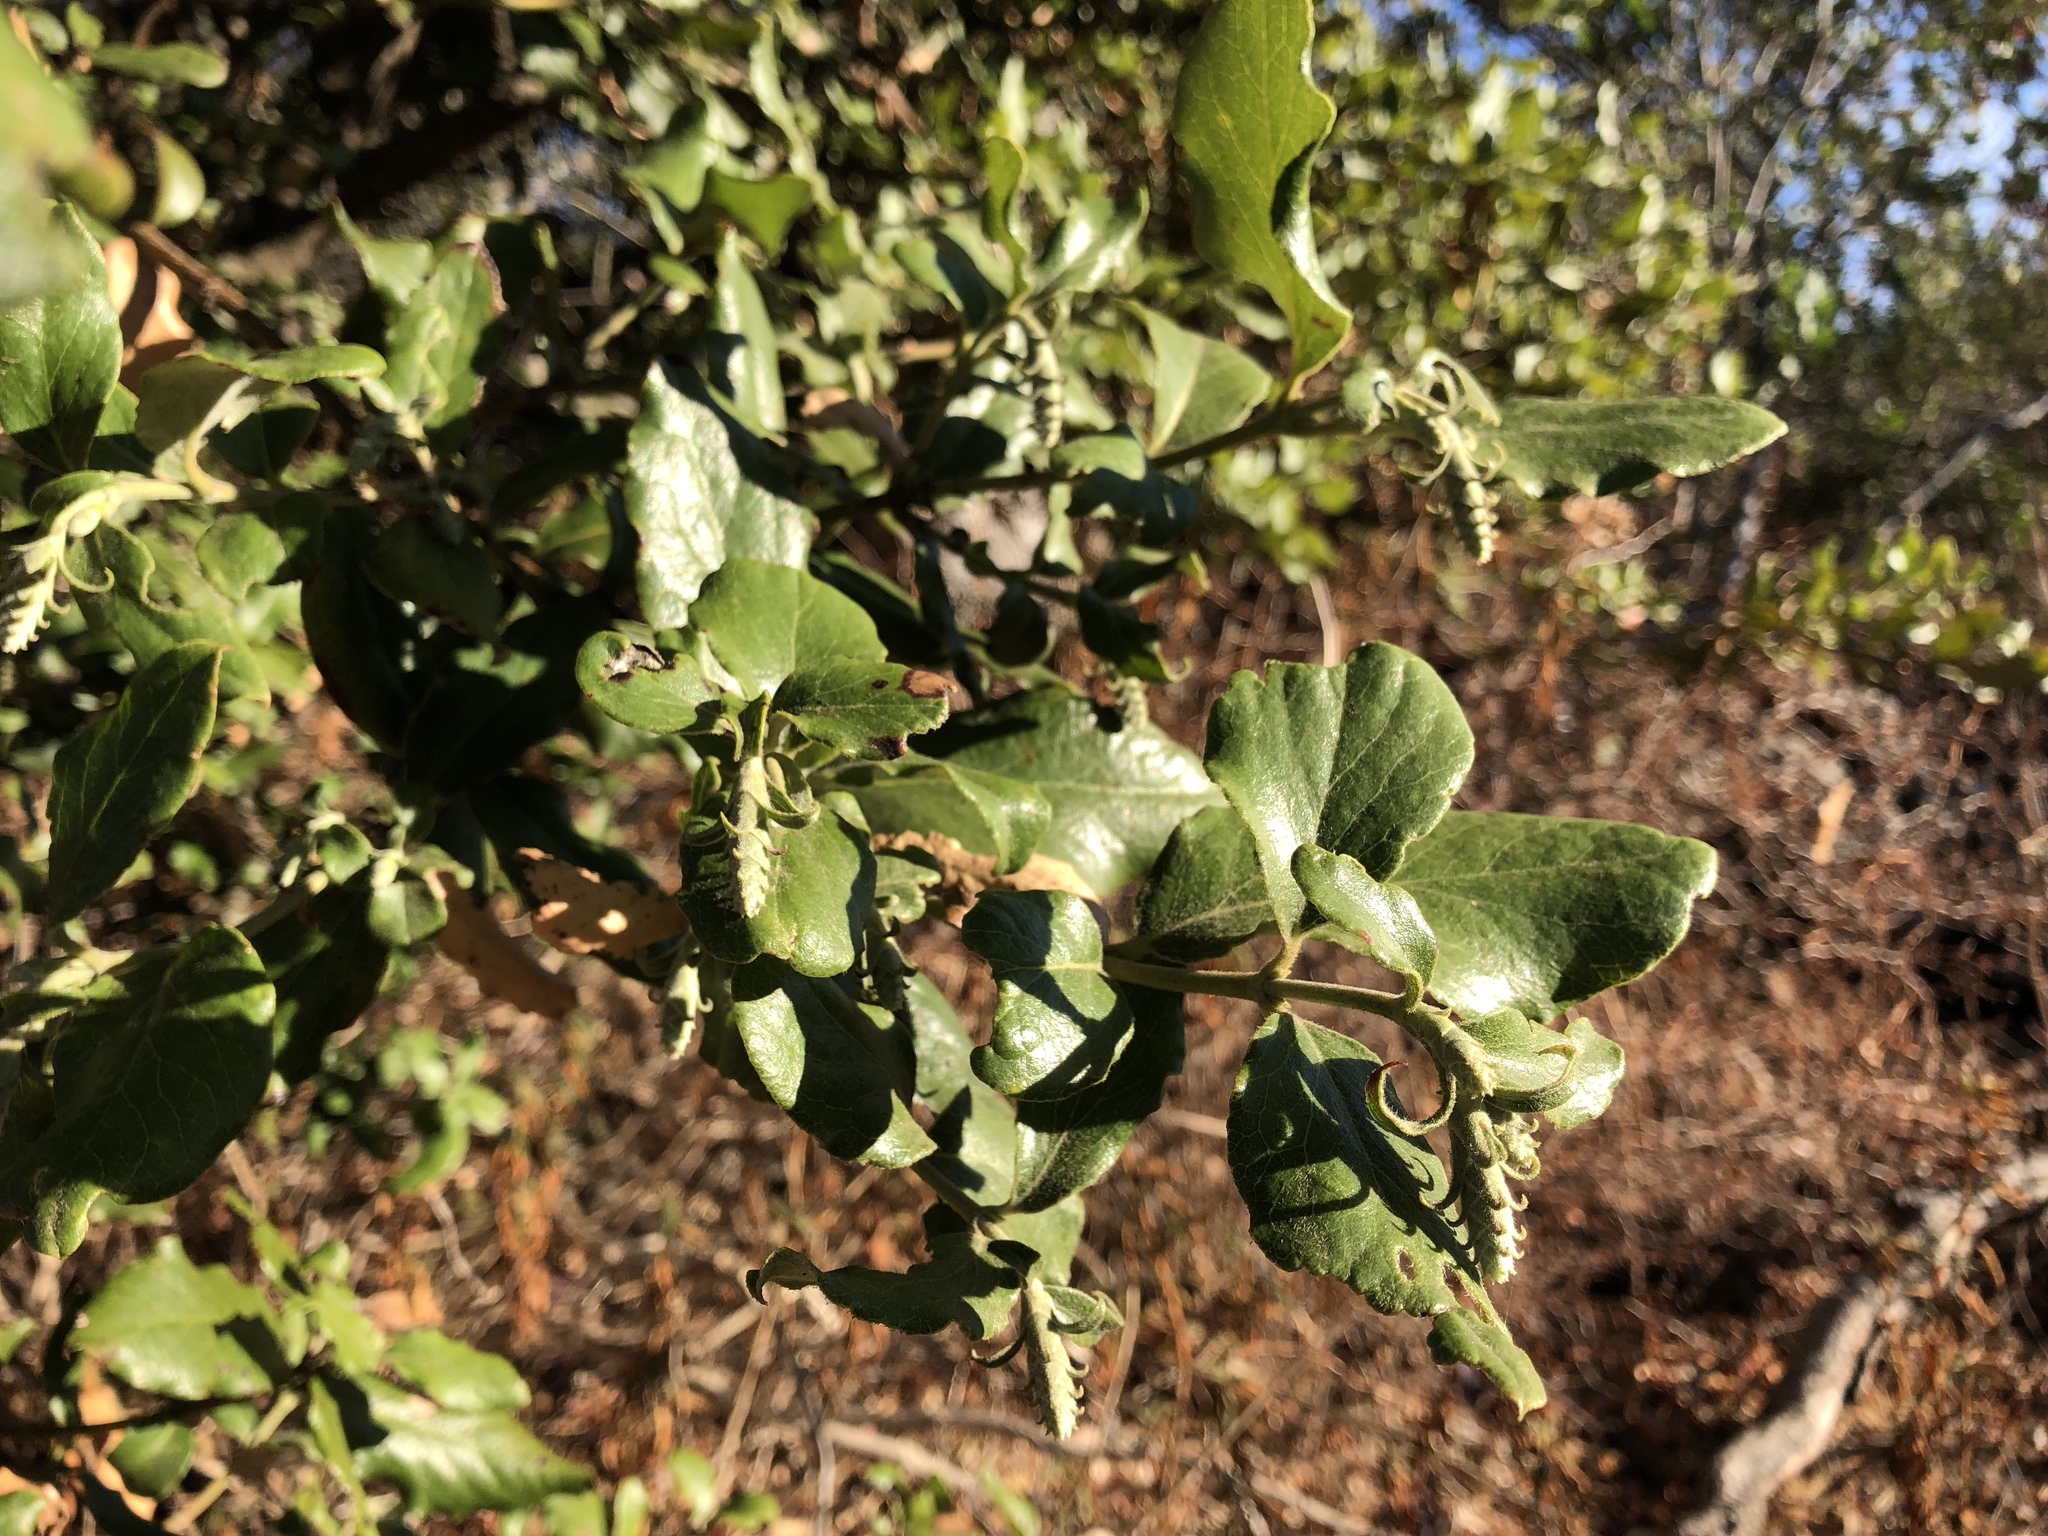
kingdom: Plantae
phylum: Tracheophyta
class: Magnoliopsida
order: Garryales
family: Garryaceae
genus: Garrya
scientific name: Garrya elliptica
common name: Silk-tassel
